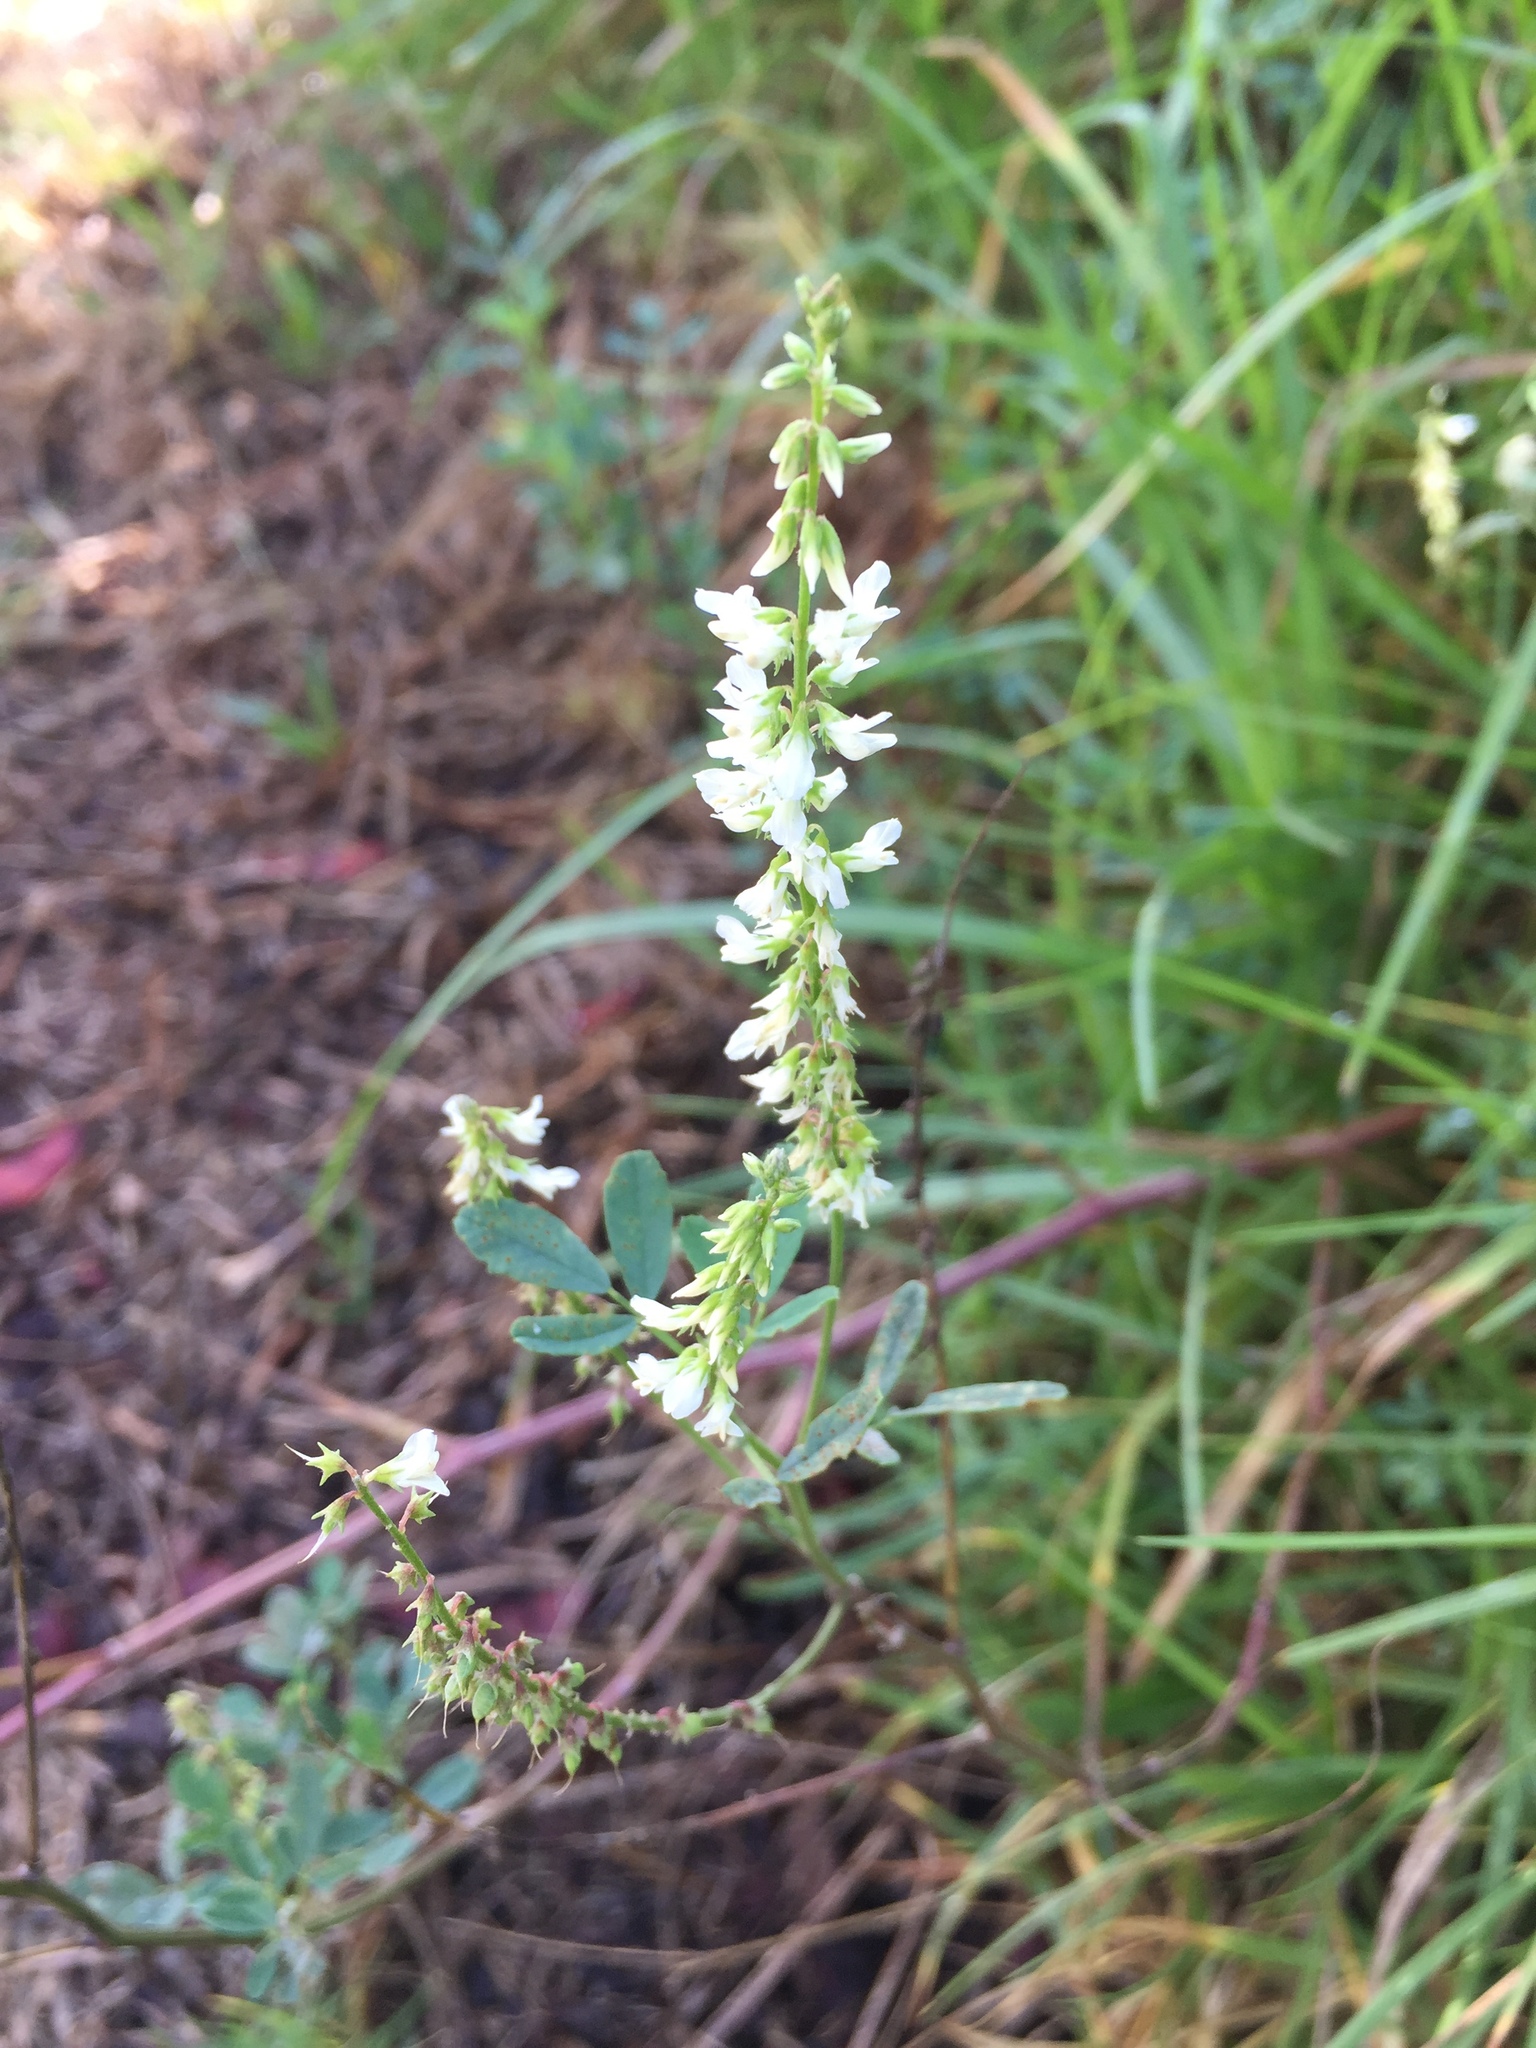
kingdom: Plantae
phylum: Tracheophyta
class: Magnoliopsida
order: Fabales
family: Fabaceae
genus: Melilotus
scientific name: Melilotus albus
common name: White melilot
